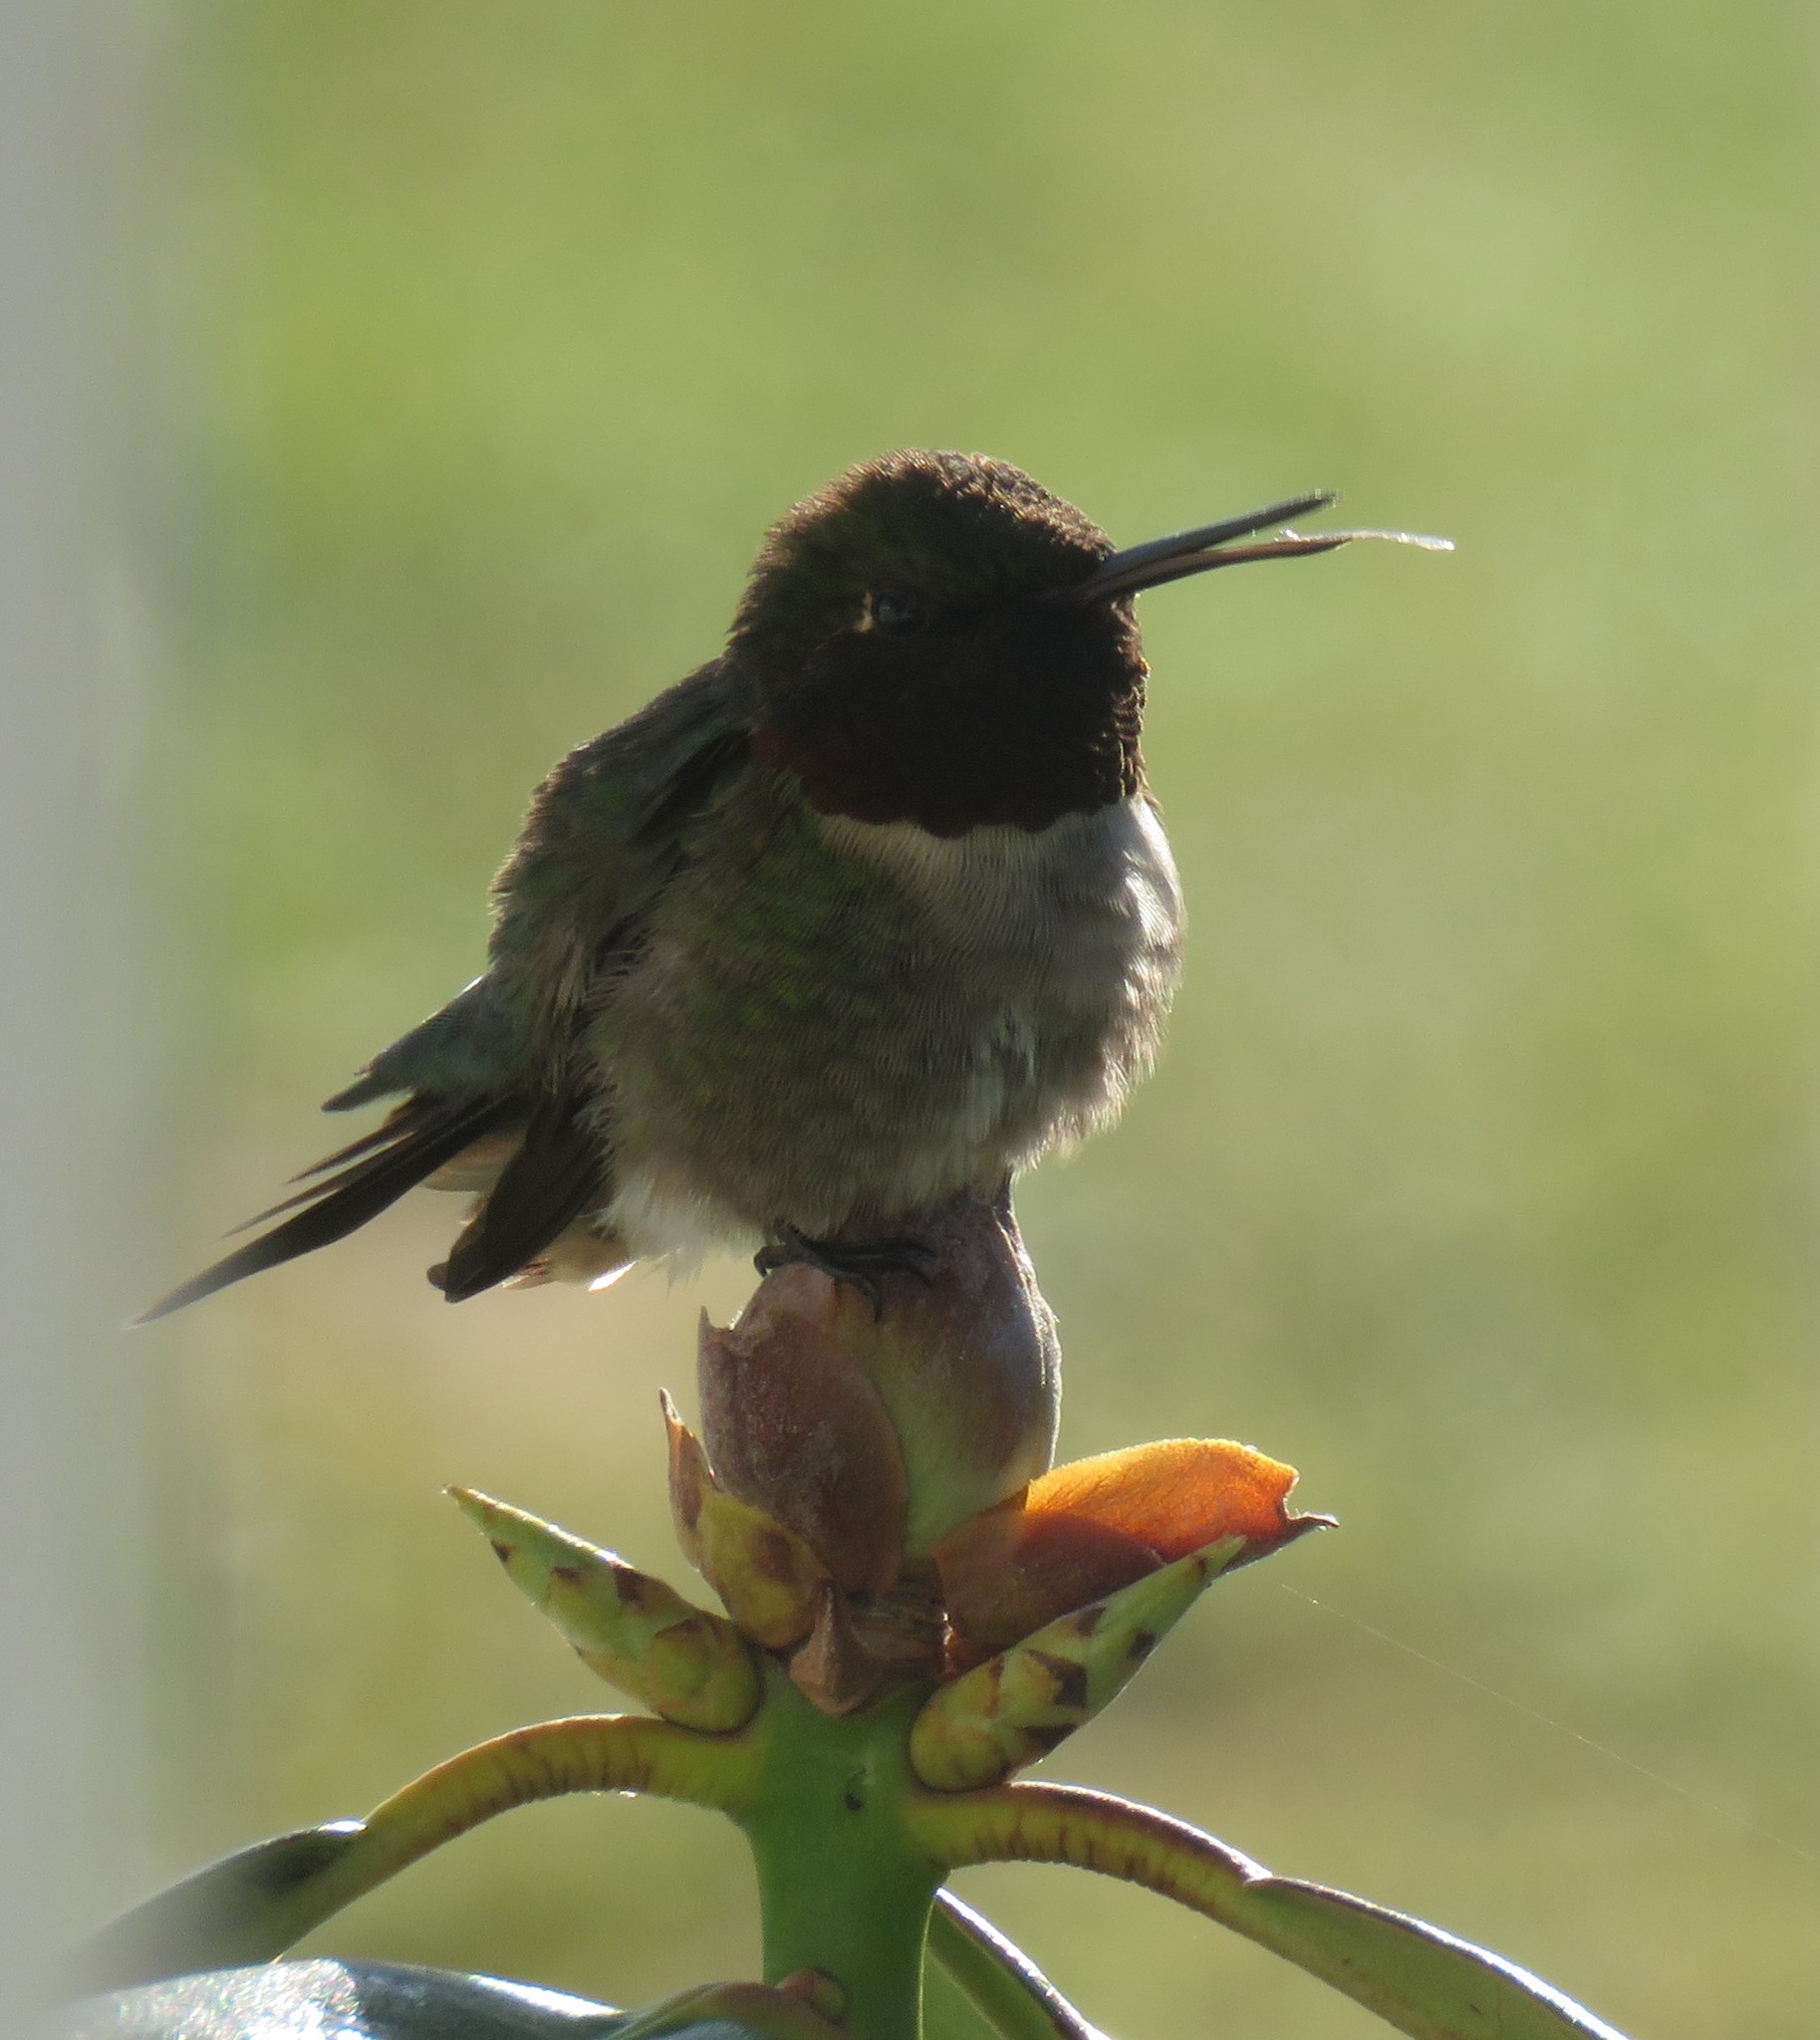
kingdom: Animalia
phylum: Chordata
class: Aves
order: Apodiformes
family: Trochilidae
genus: Archilochus
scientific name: Archilochus colubris
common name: Ruby-throated hummingbird
